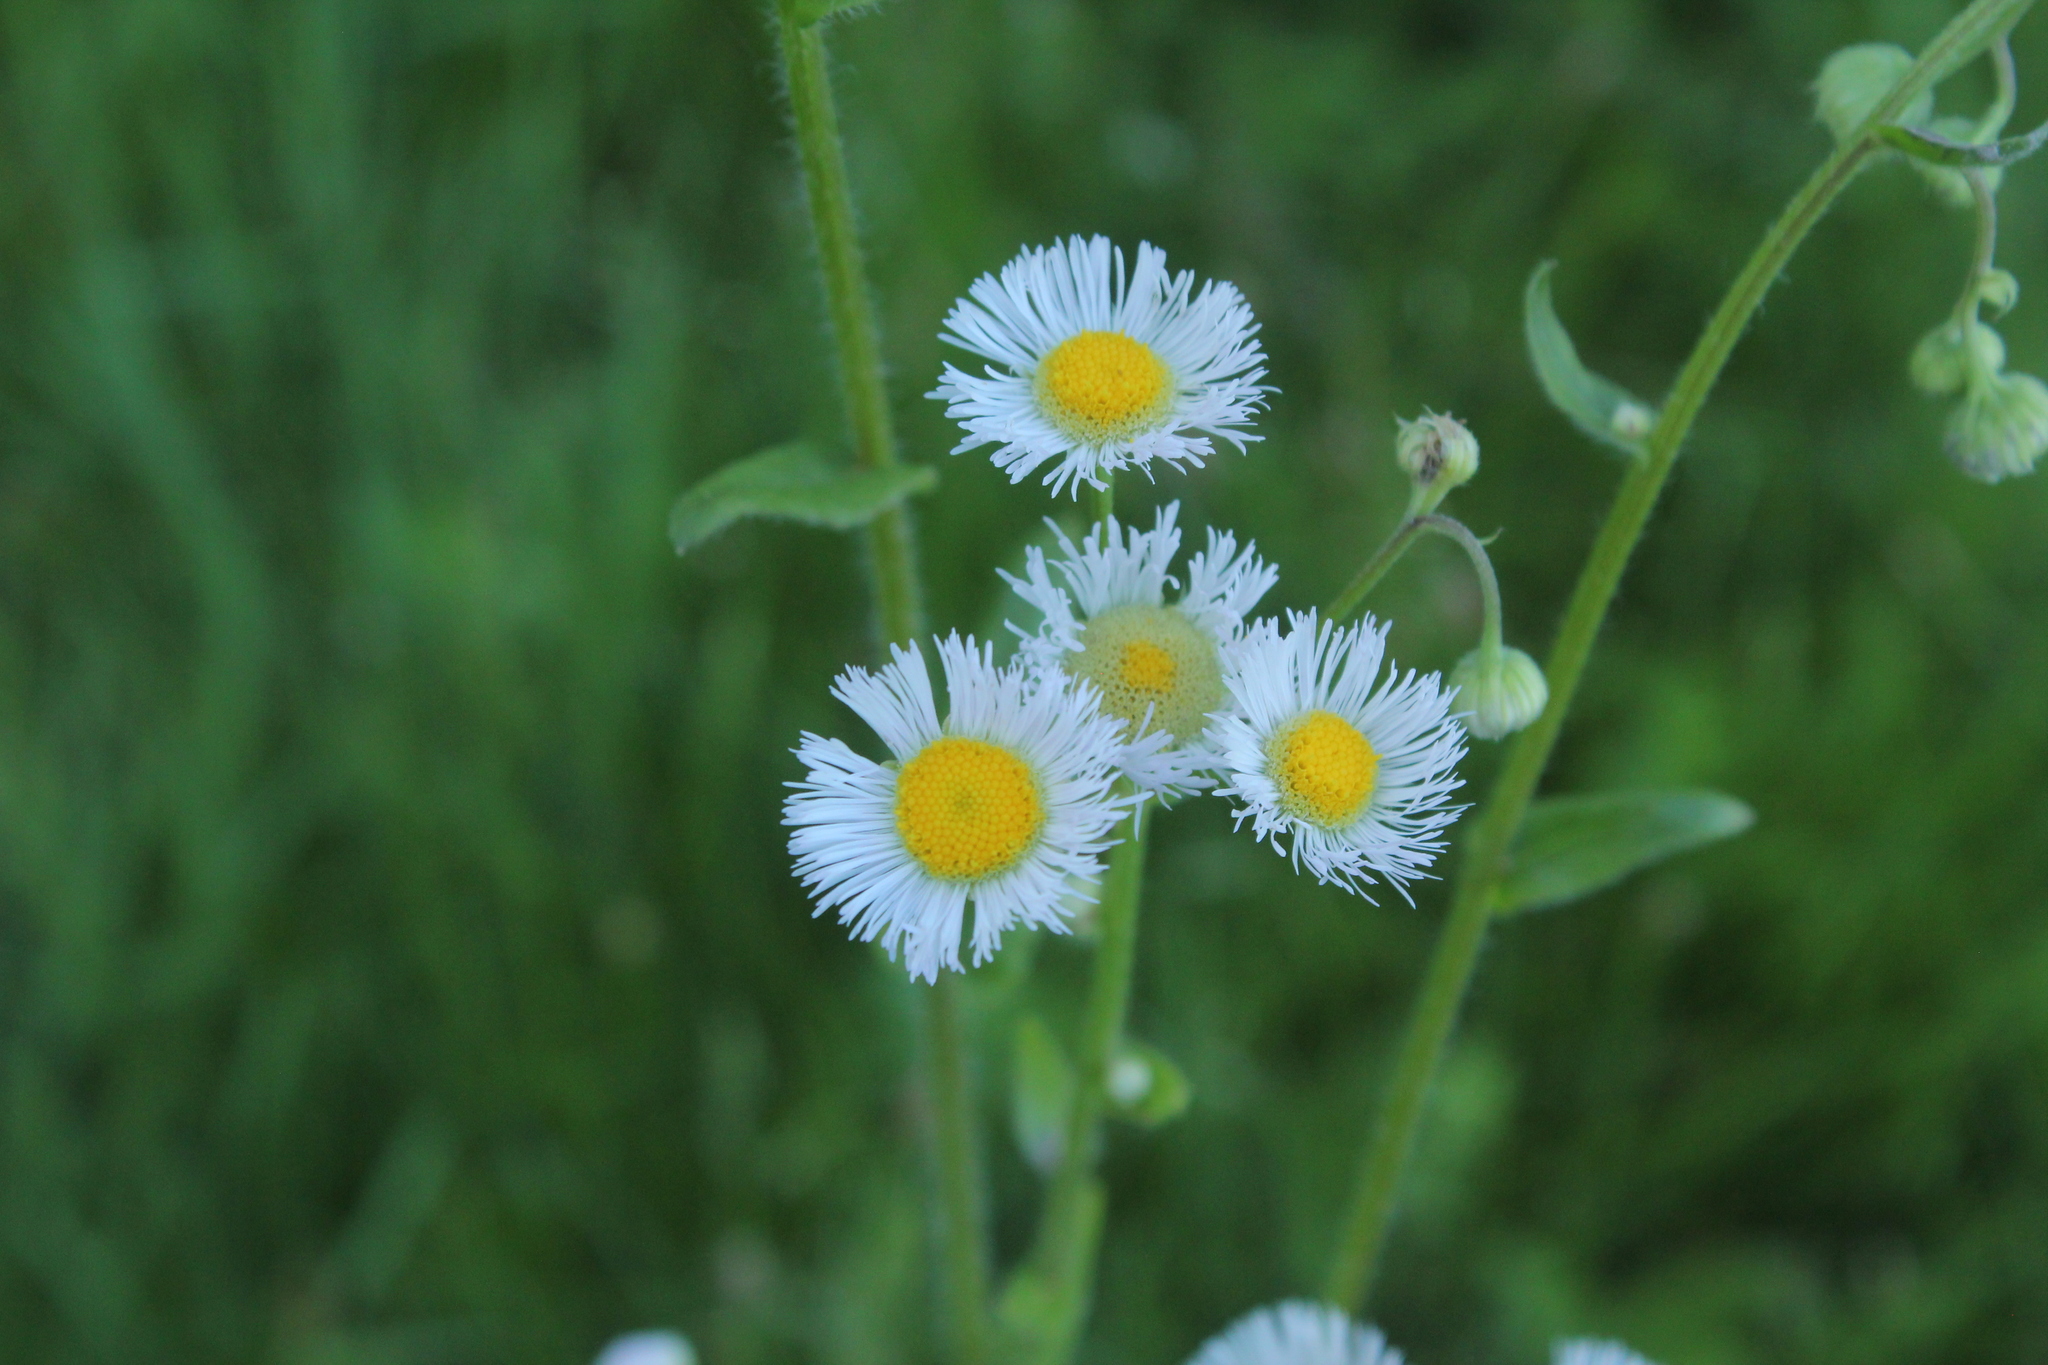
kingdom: Plantae
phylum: Tracheophyta
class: Magnoliopsida
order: Asterales
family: Asteraceae
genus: Erigeron
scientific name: Erigeron philadelphicus
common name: Robin's-plantain
